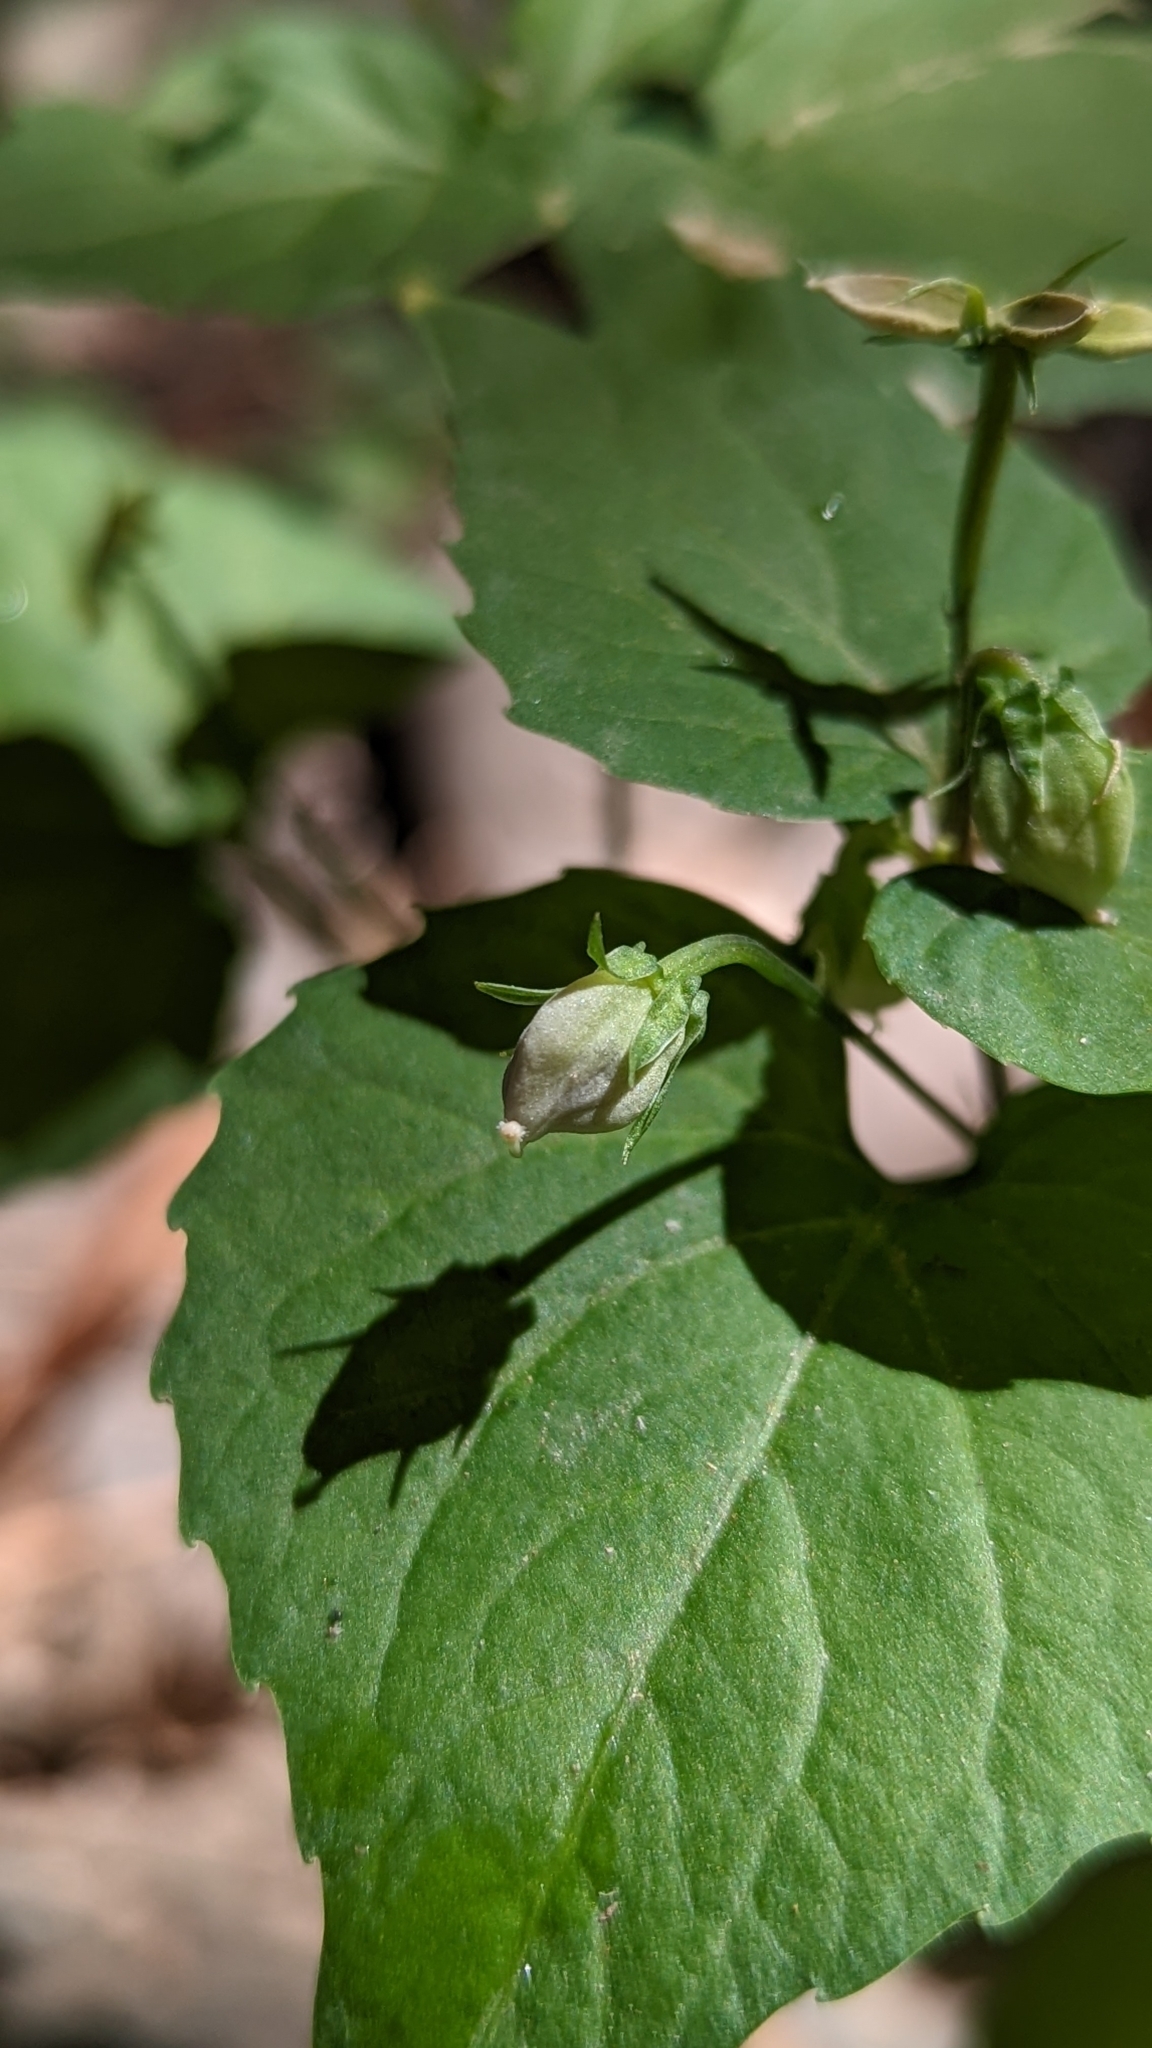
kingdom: Plantae
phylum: Tracheophyta
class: Magnoliopsida
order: Malpighiales
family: Violaceae
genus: Viola
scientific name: Viola canadensis
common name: Canada violet
